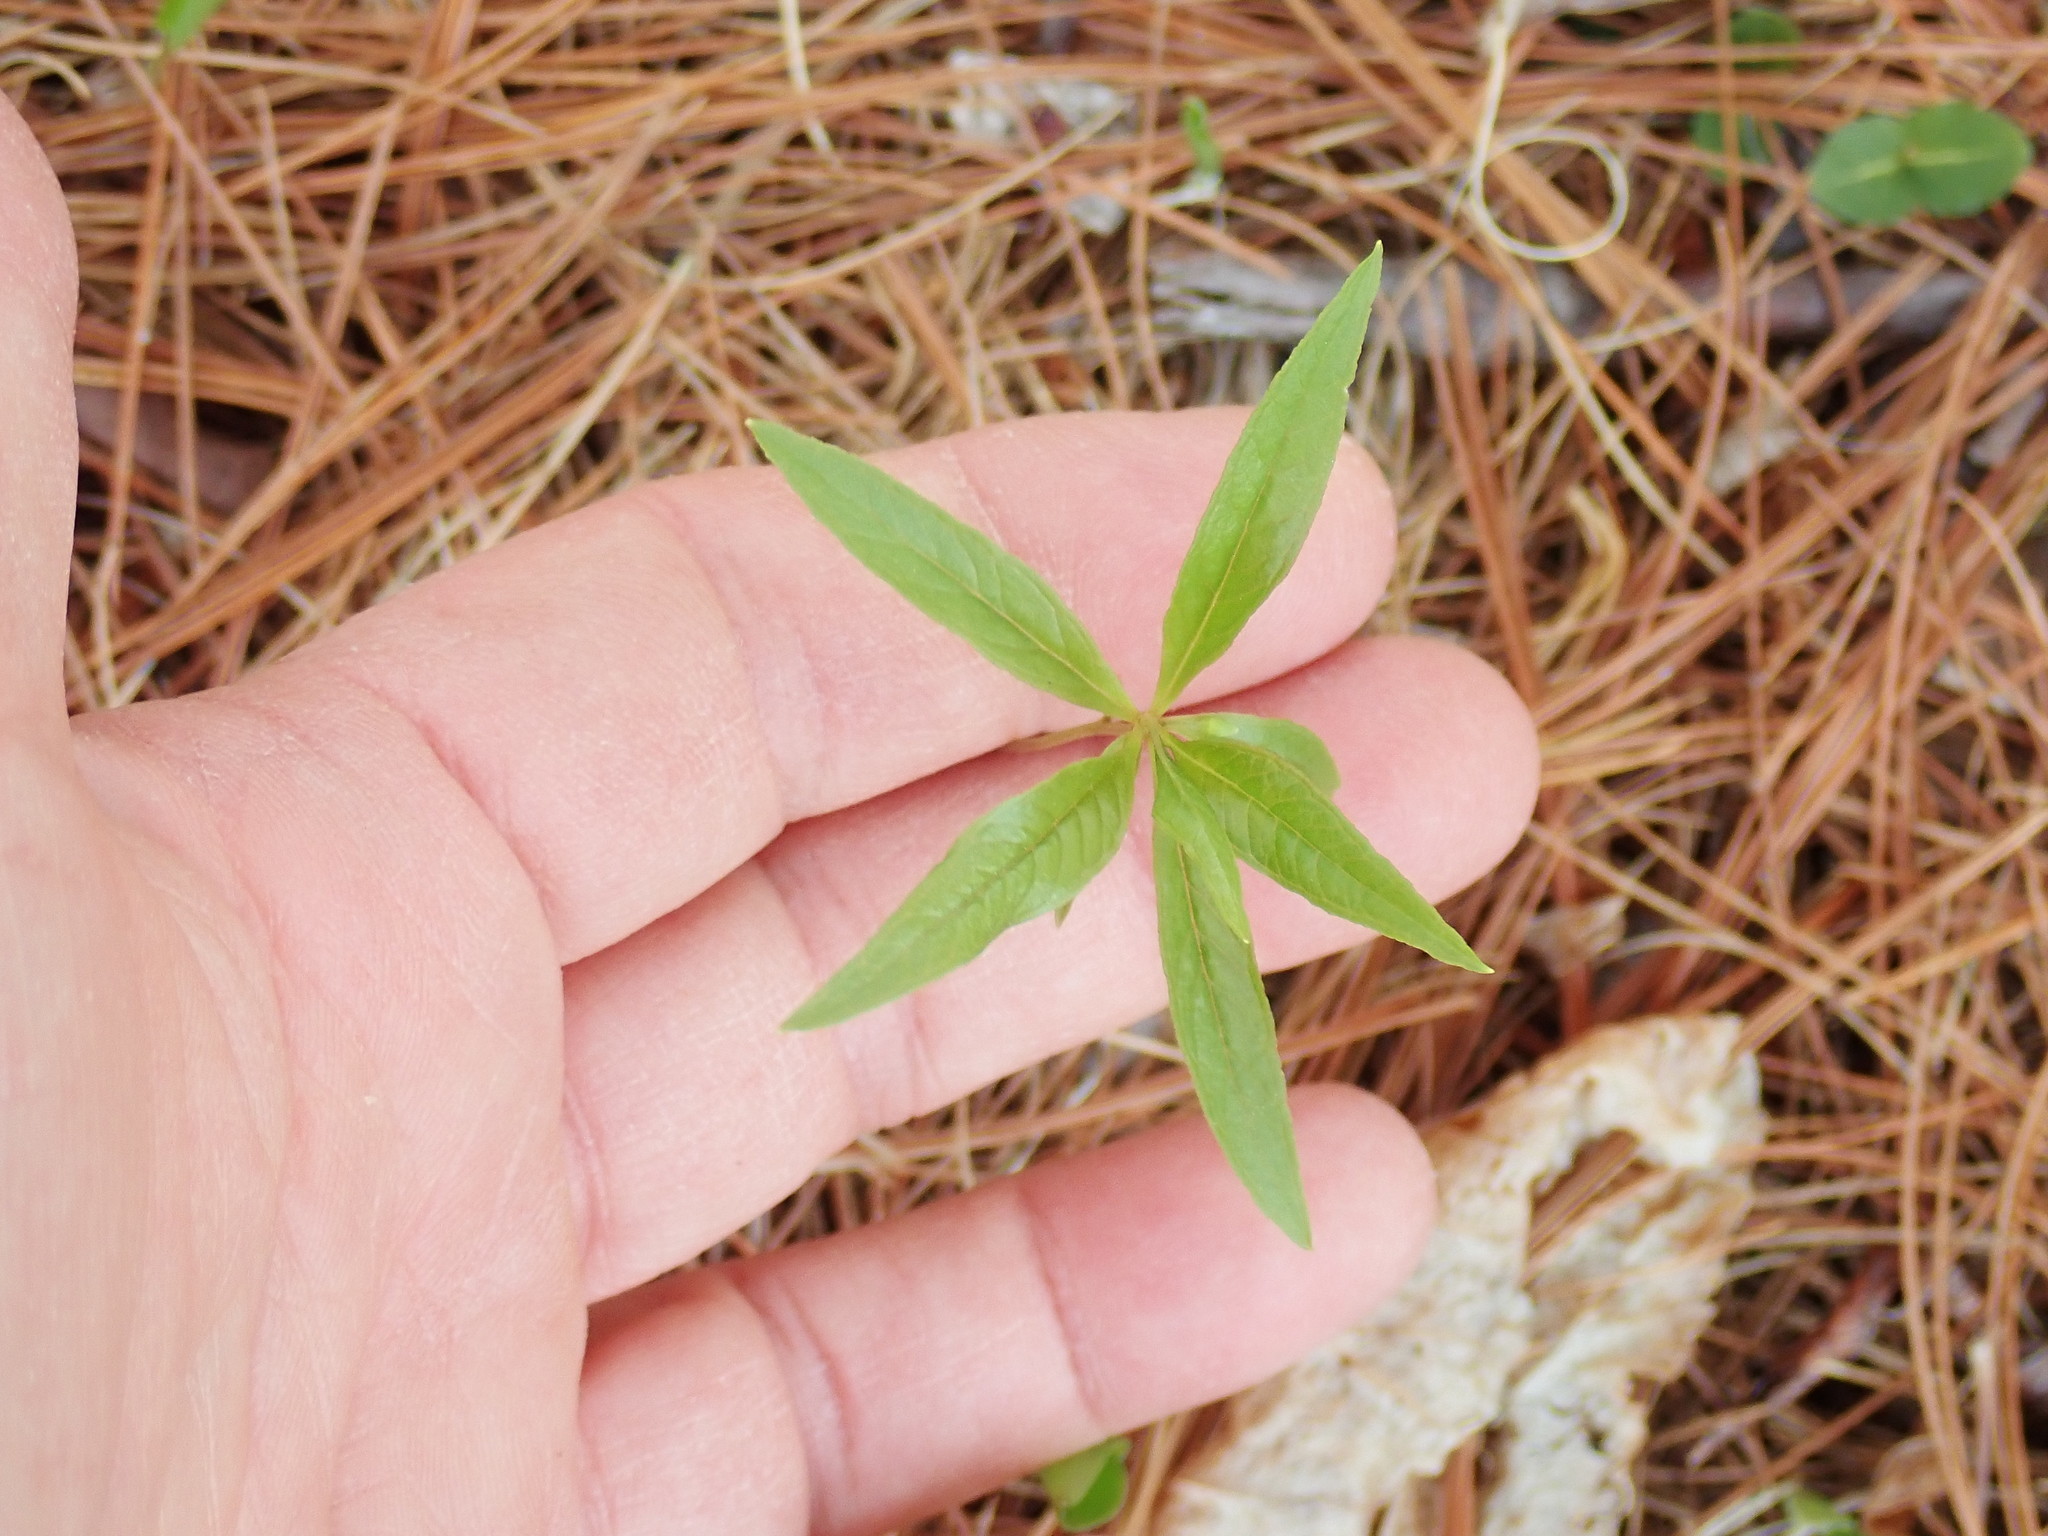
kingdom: Plantae
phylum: Tracheophyta
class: Magnoliopsida
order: Ericales
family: Primulaceae
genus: Lysimachia
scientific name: Lysimachia borealis
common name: American starflower
